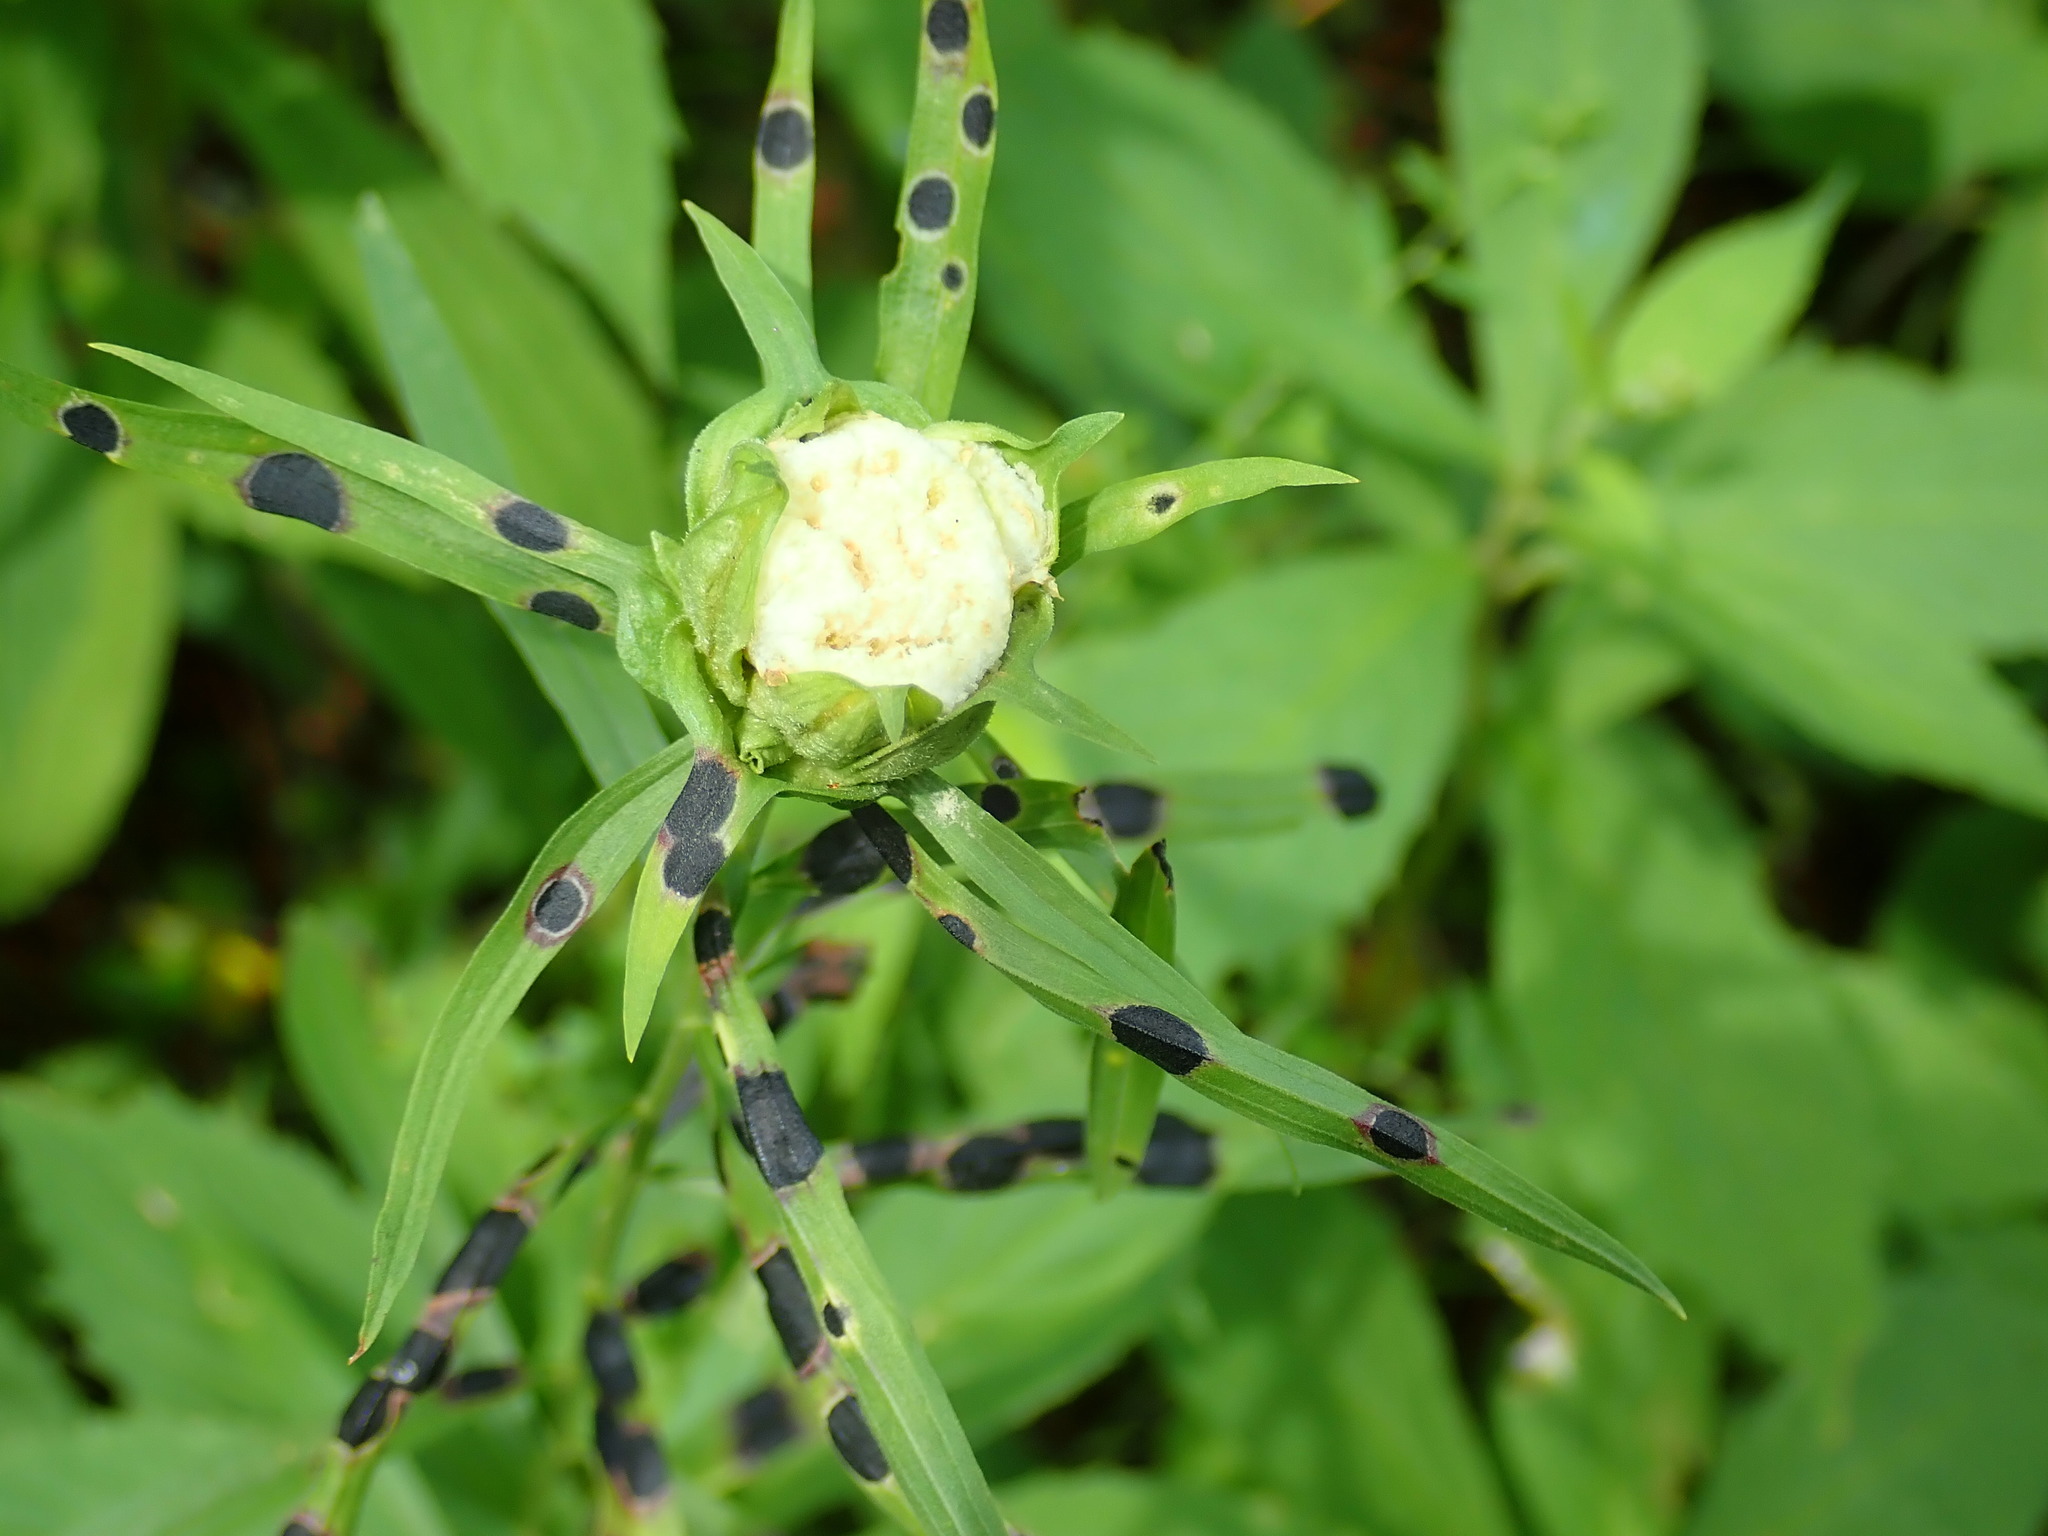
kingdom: Animalia
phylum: Arthropoda
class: Insecta
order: Diptera
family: Cecidomyiidae
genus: Rhopalomyia
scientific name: Rhopalomyia lobata
